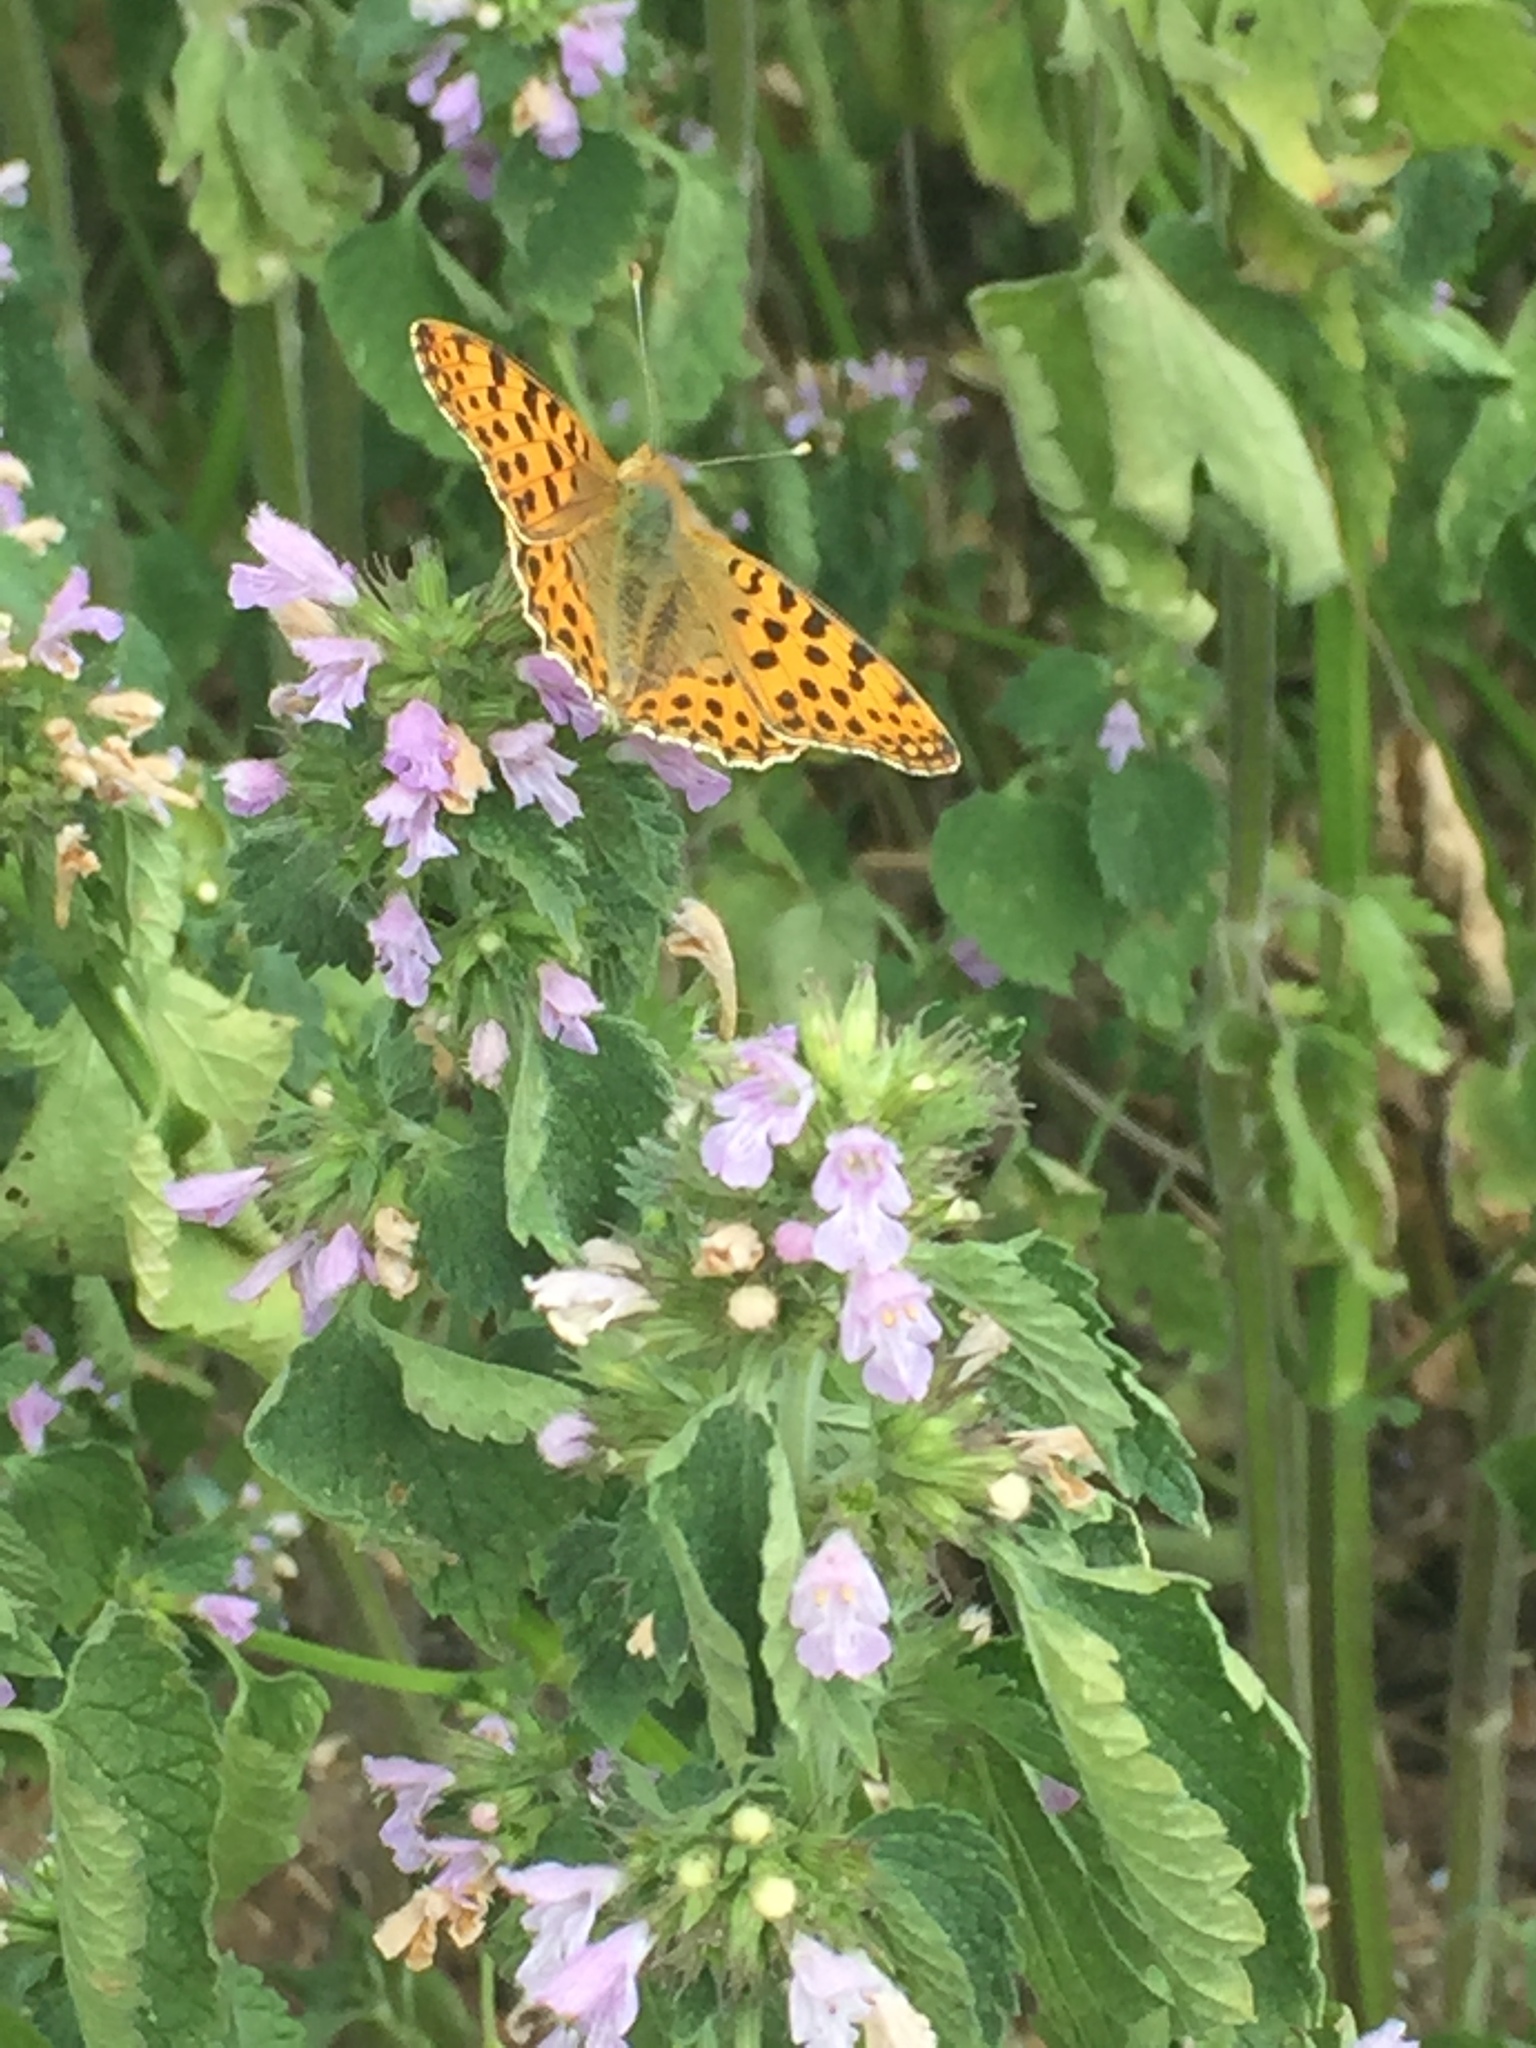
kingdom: Animalia
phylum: Arthropoda
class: Insecta
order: Lepidoptera
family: Nymphalidae
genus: Issoria
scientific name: Issoria lathonia
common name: Queen of spain fritillary
